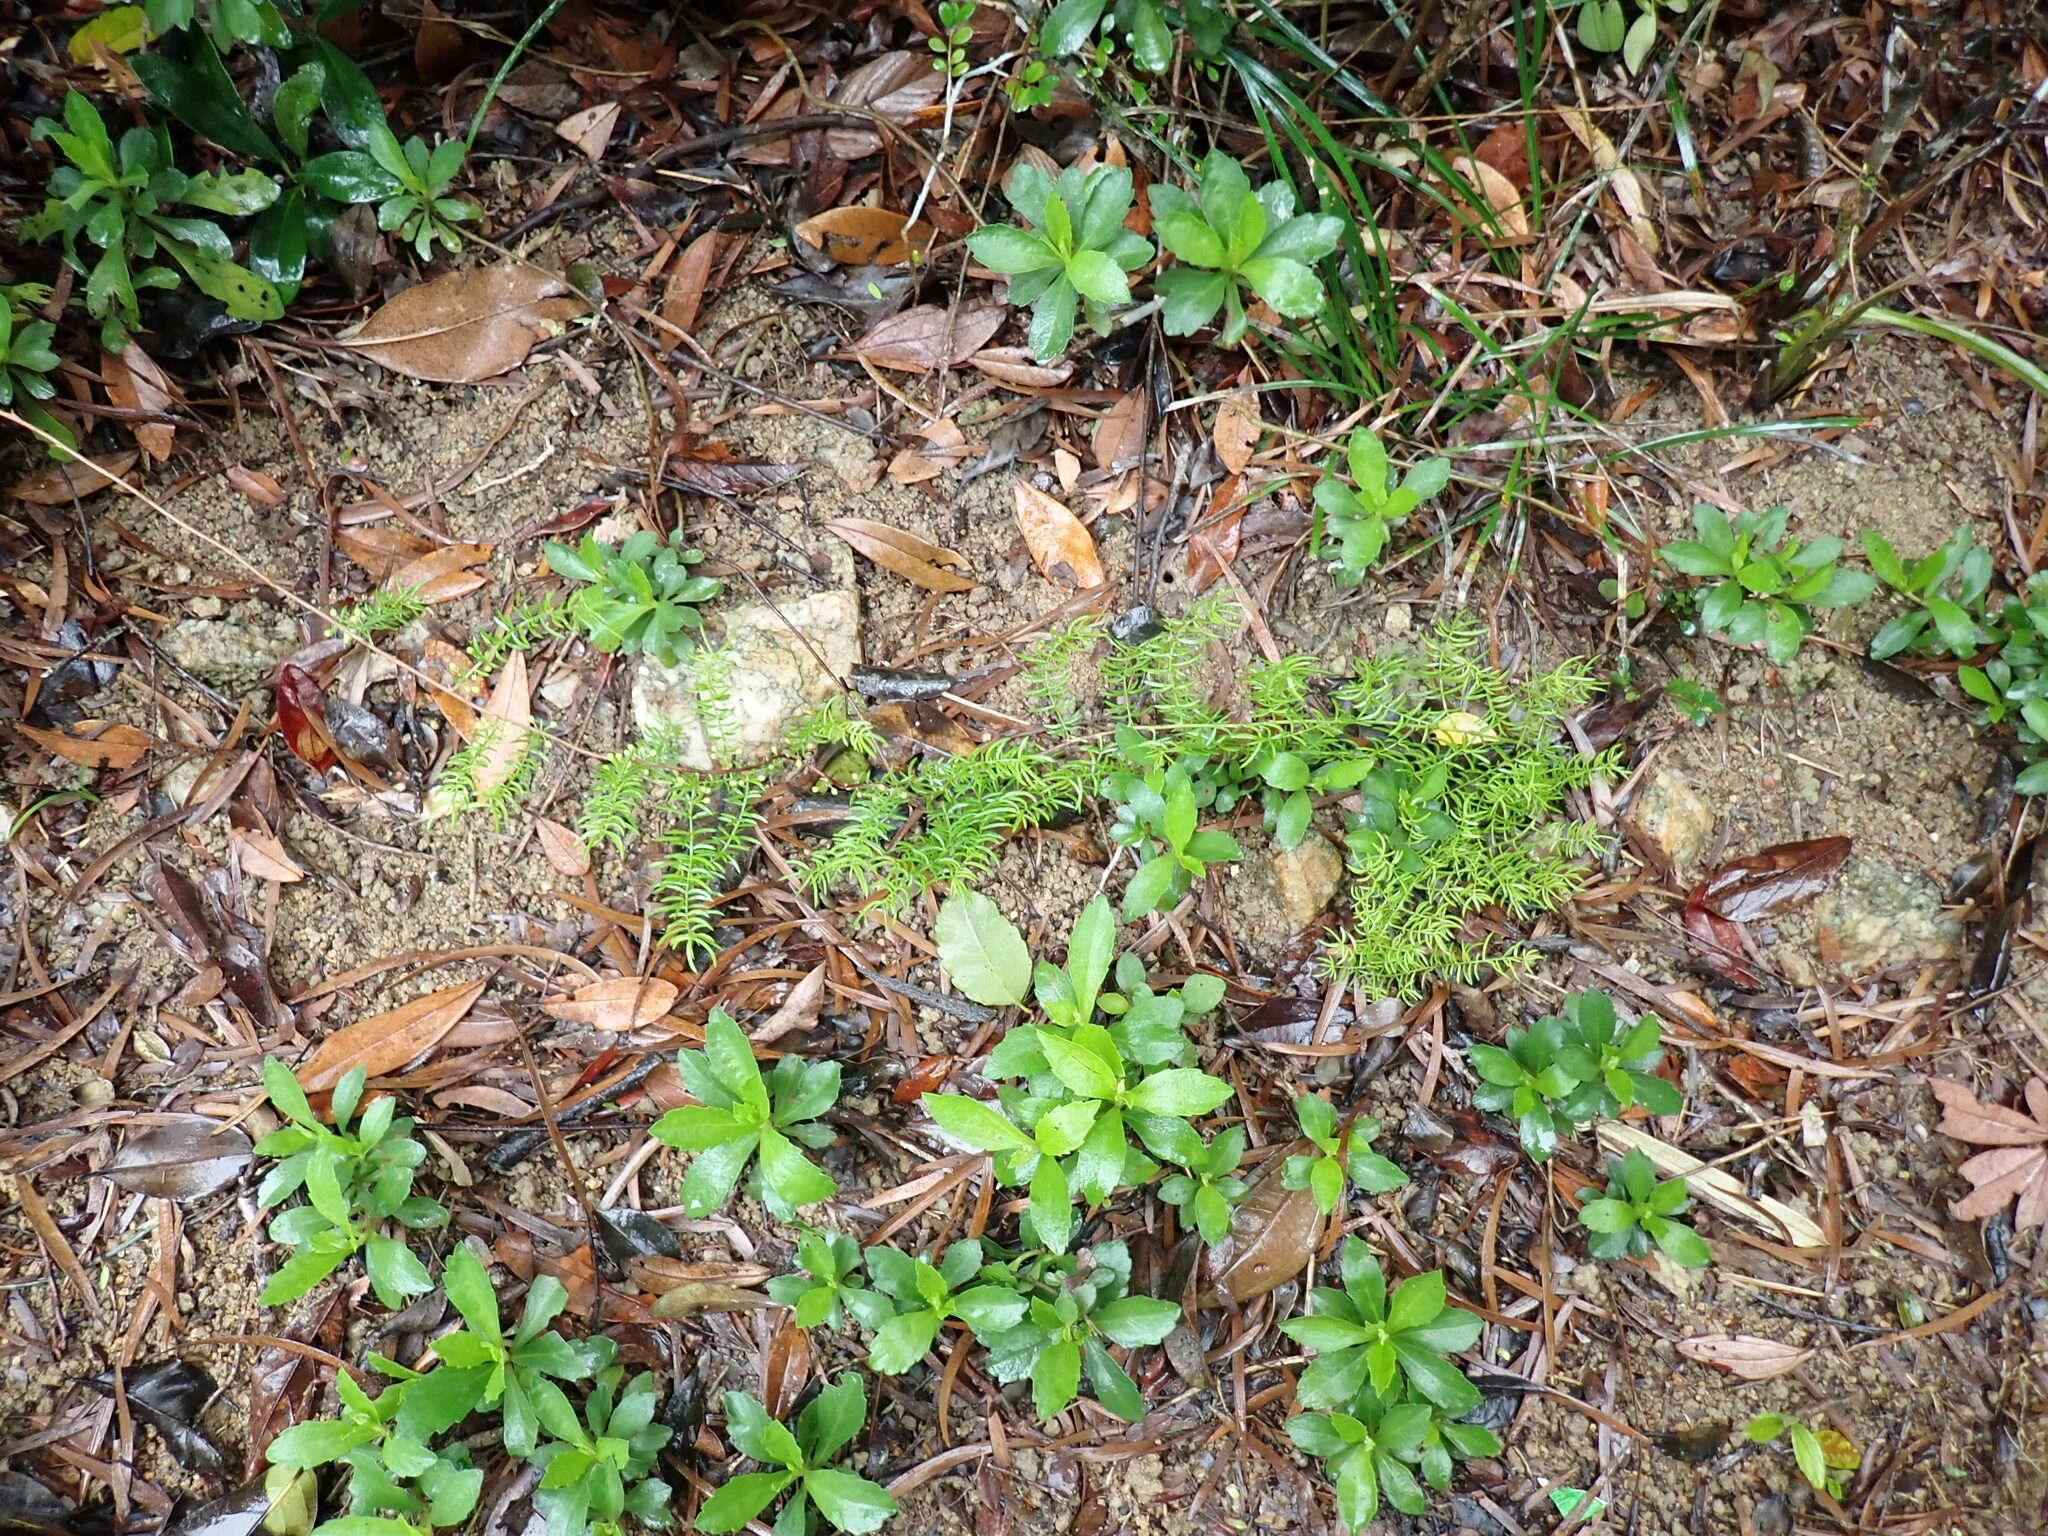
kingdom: Plantae
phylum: Tracheophyta
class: Liliopsida
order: Asparagales
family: Asparagaceae
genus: Asparagus
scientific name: Asparagus cochinchinensis
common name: Chinese asparagus
